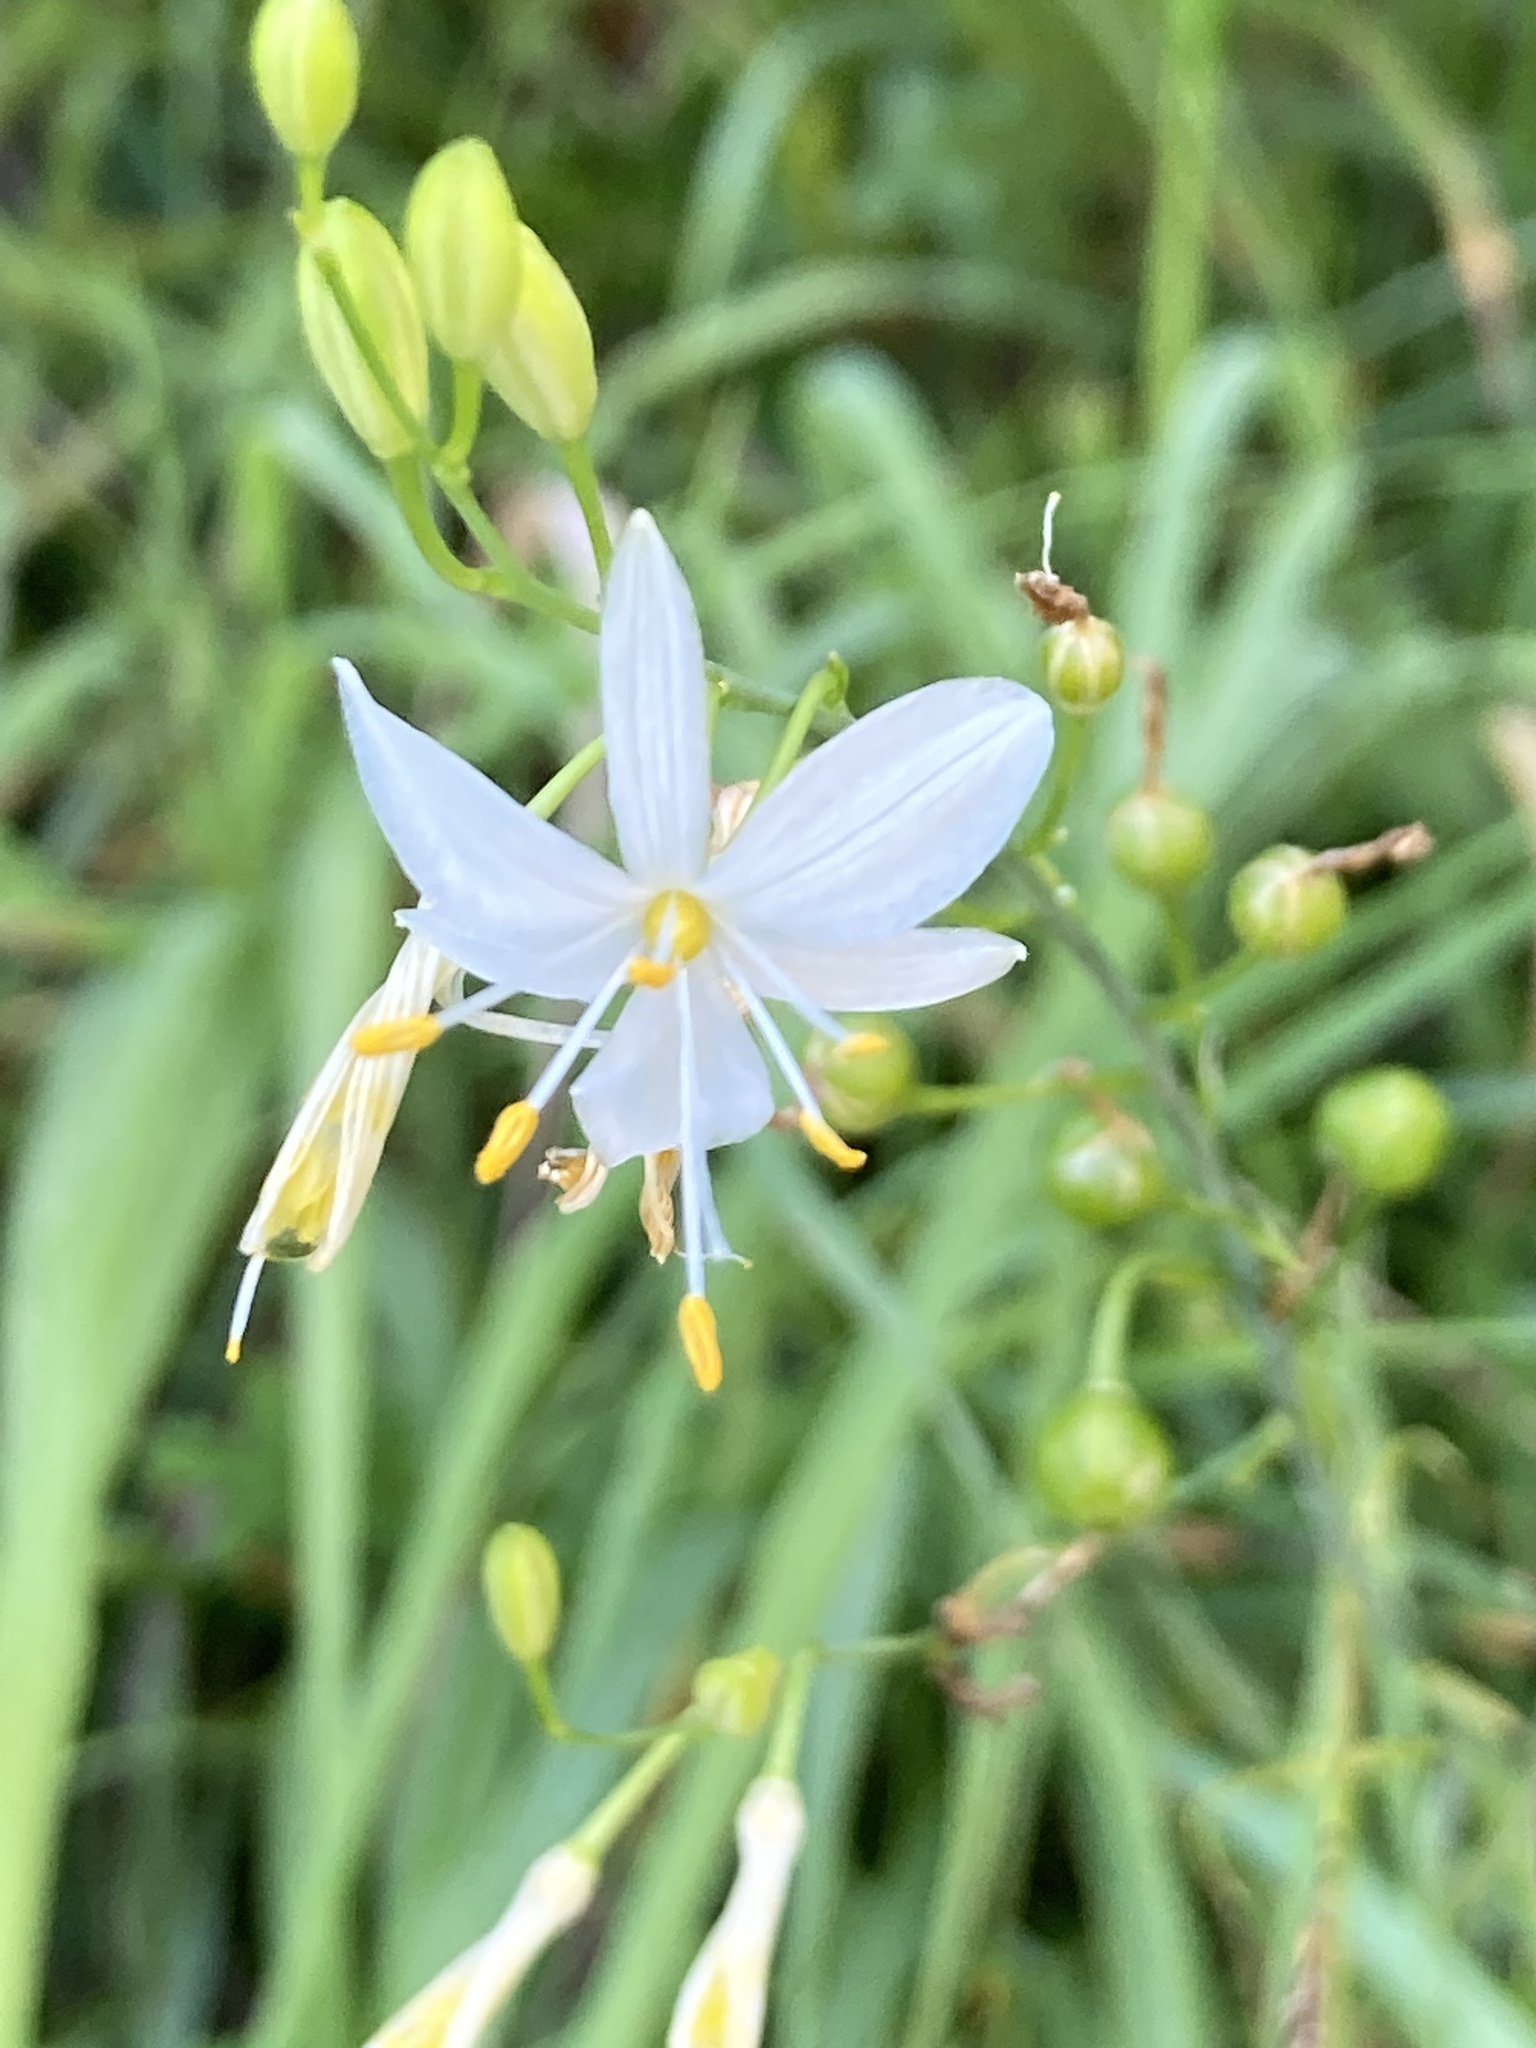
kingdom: Plantae
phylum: Tracheophyta
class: Liliopsida
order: Asparagales
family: Asparagaceae
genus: Anthericum
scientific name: Anthericum ramosum
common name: Branched st. bernard's-lily
